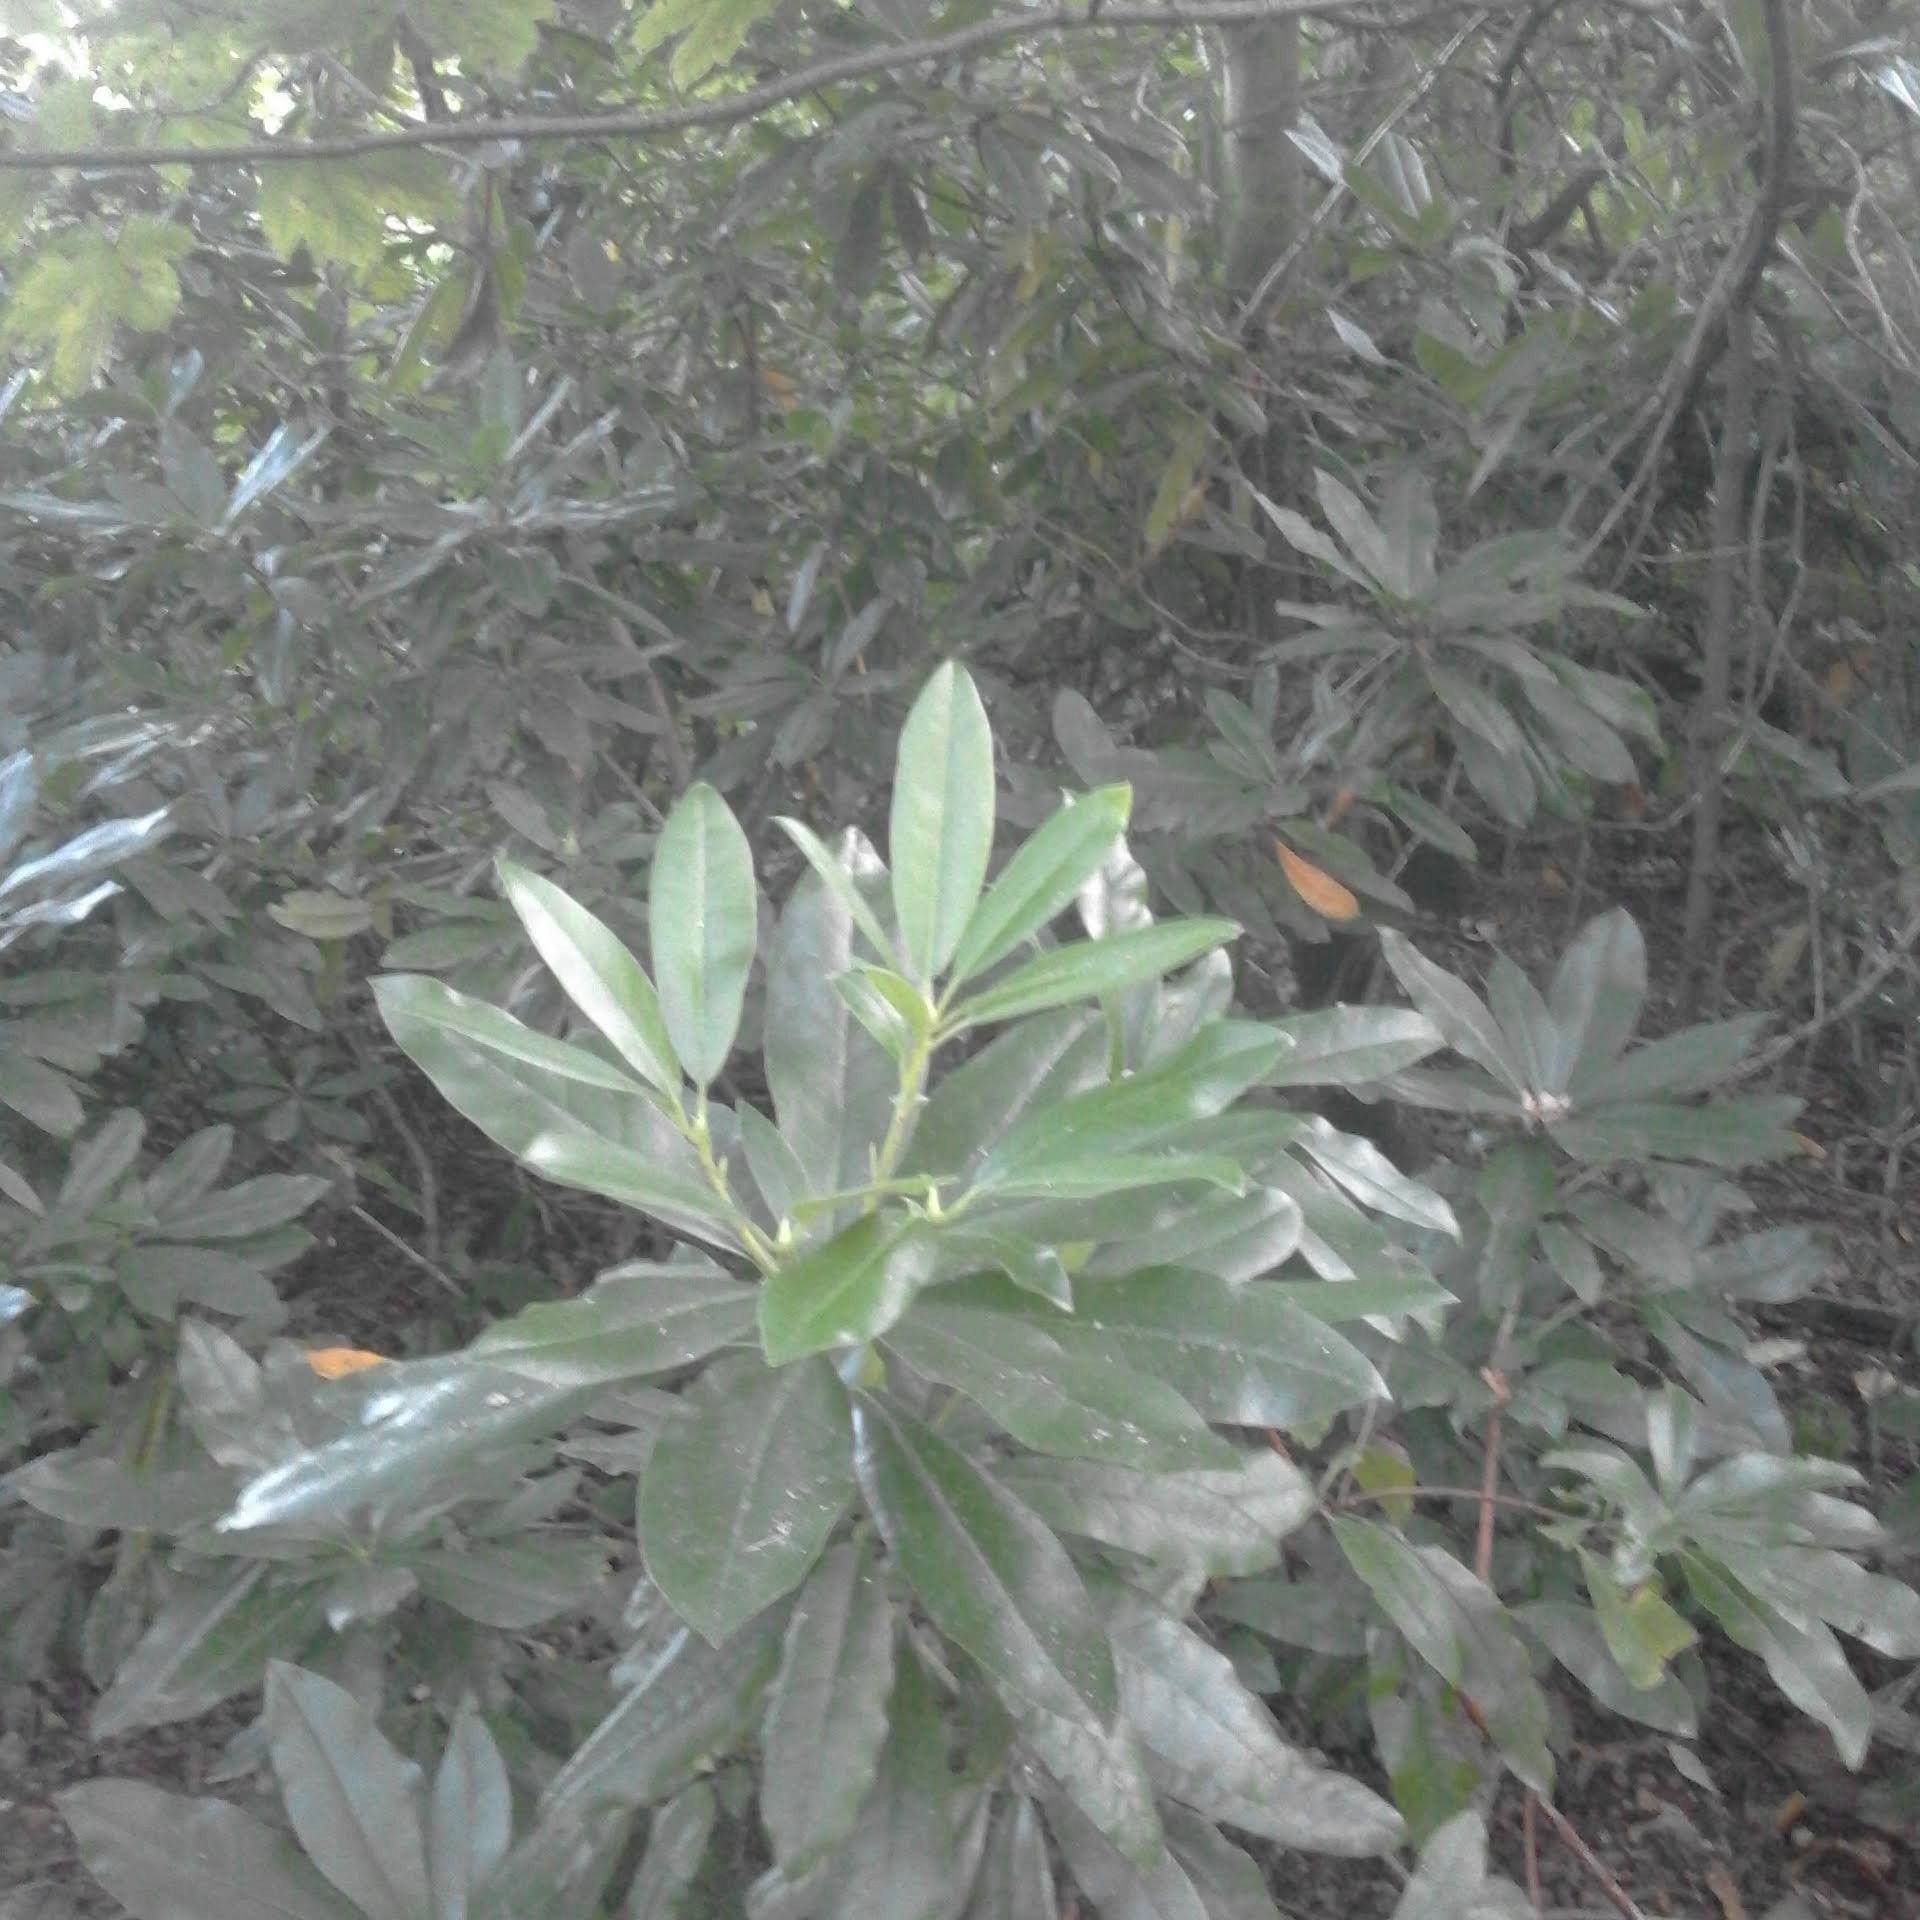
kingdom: Plantae
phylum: Tracheophyta
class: Magnoliopsida
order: Ericales
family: Ericaceae
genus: Rhododendron
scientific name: Rhododendron ponticum
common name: Rhododendron
